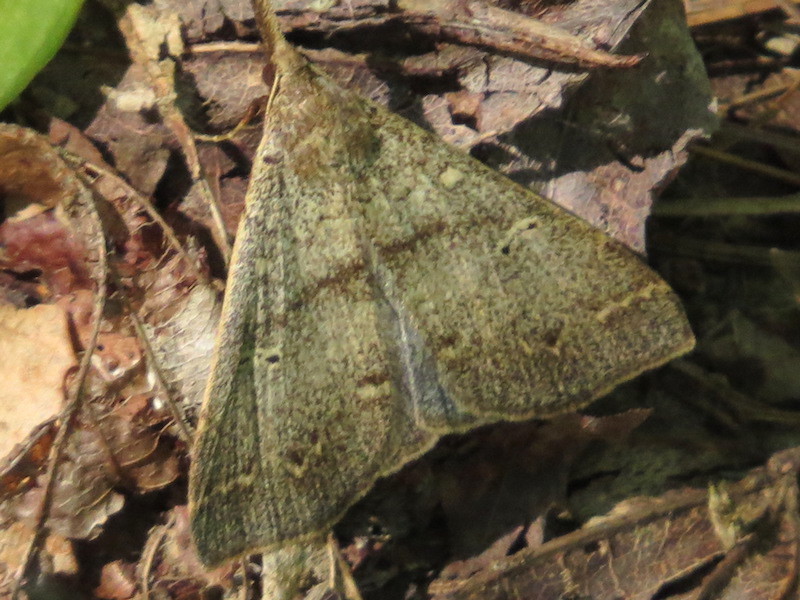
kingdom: Animalia
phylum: Arthropoda
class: Insecta
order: Lepidoptera
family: Erebidae
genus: Renia
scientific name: Renia discoloralis
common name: Discolored renia moth
